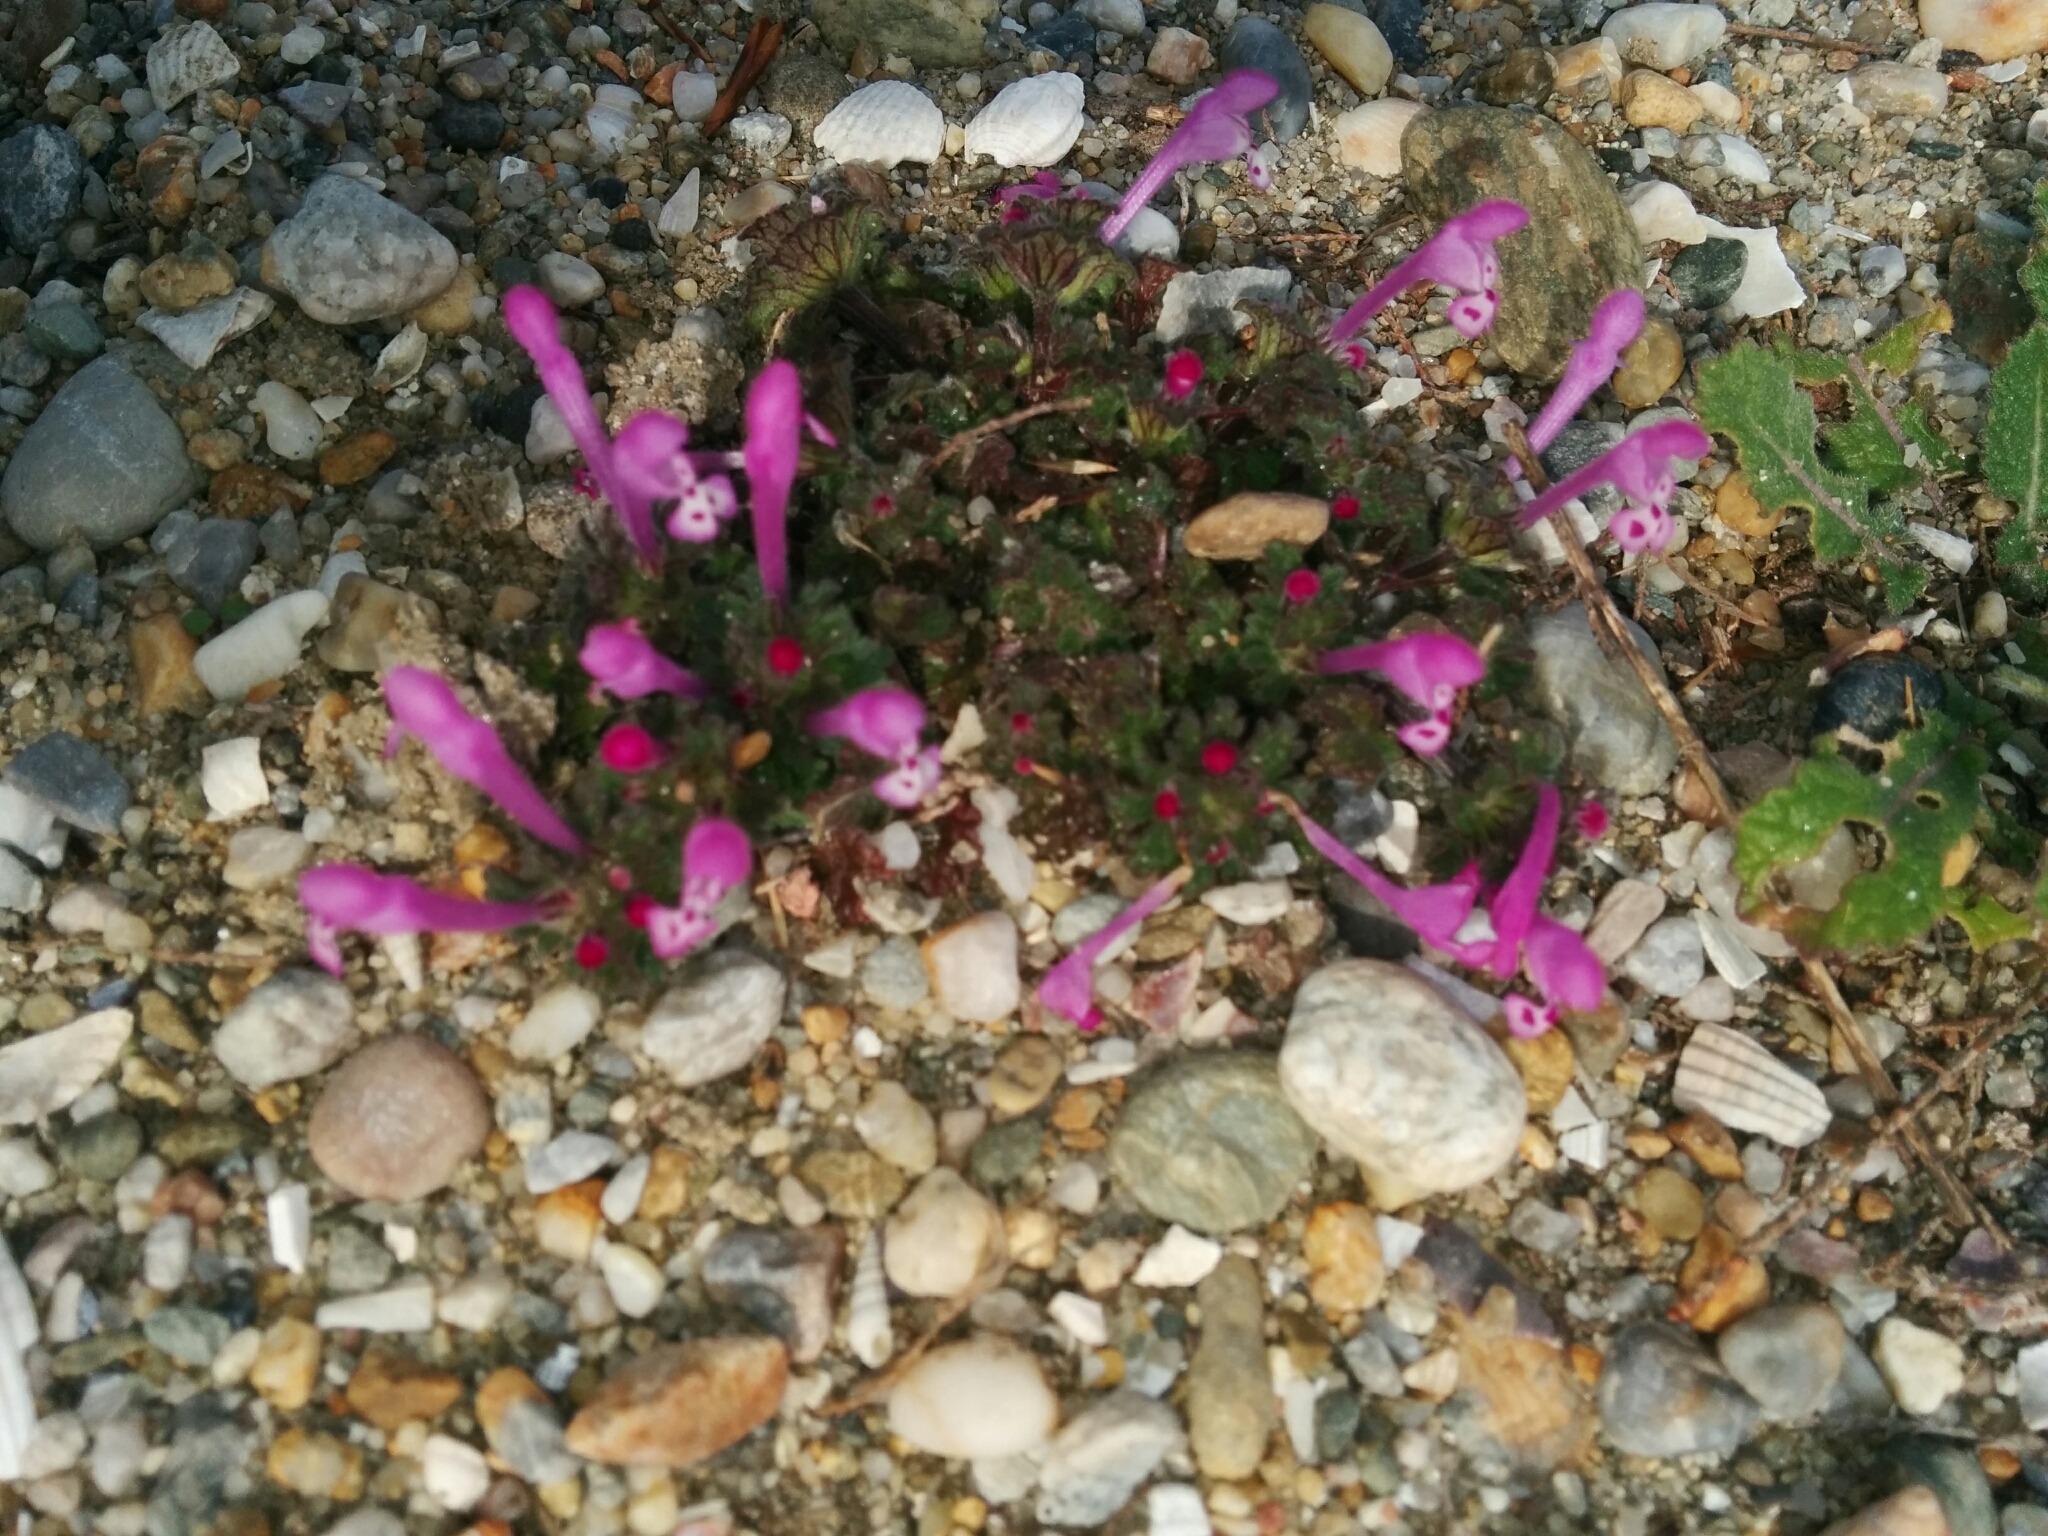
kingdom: Plantae
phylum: Tracheophyta
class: Magnoliopsida
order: Lamiales
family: Lamiaceae
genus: Lamium
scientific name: Lamium amplexicaule
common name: Henbit dead-nettle
